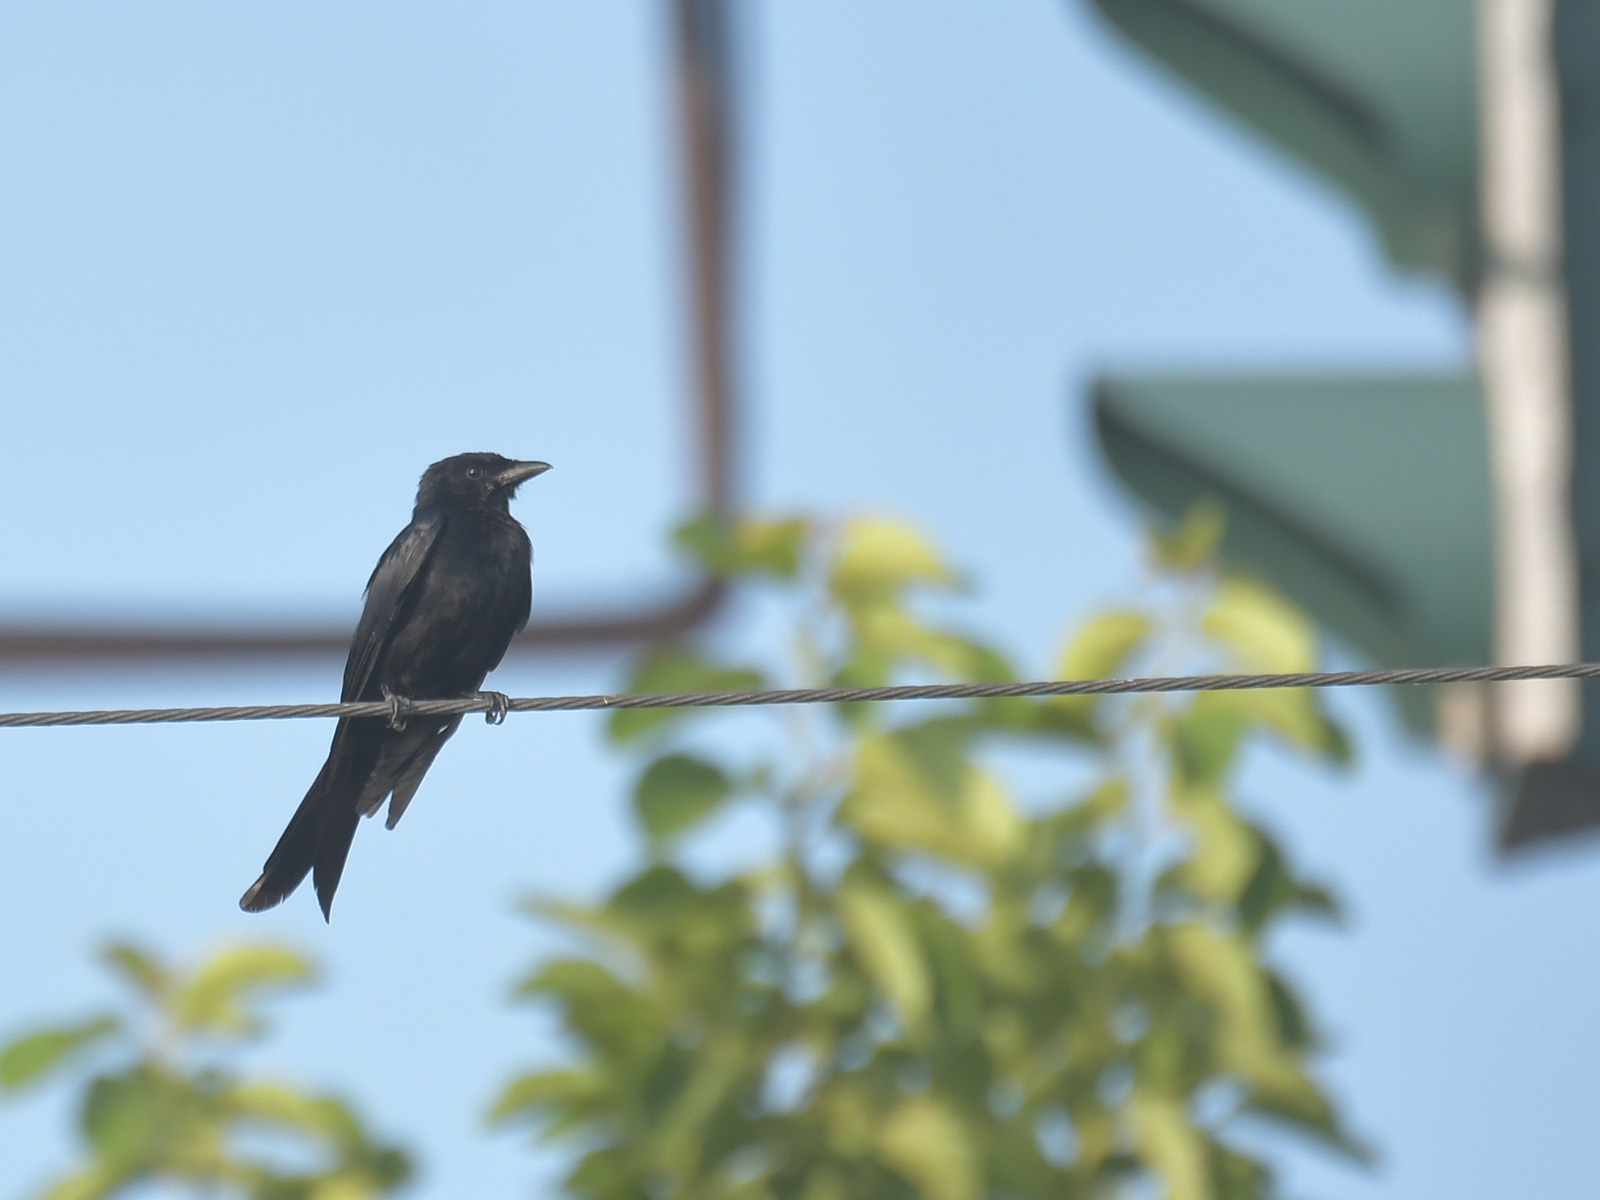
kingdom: Animalia
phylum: Chordata
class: Aves
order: Passeriformes
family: Dicruridae
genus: Dicrurus
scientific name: Dicrurus macrocercus
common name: Black drongo
